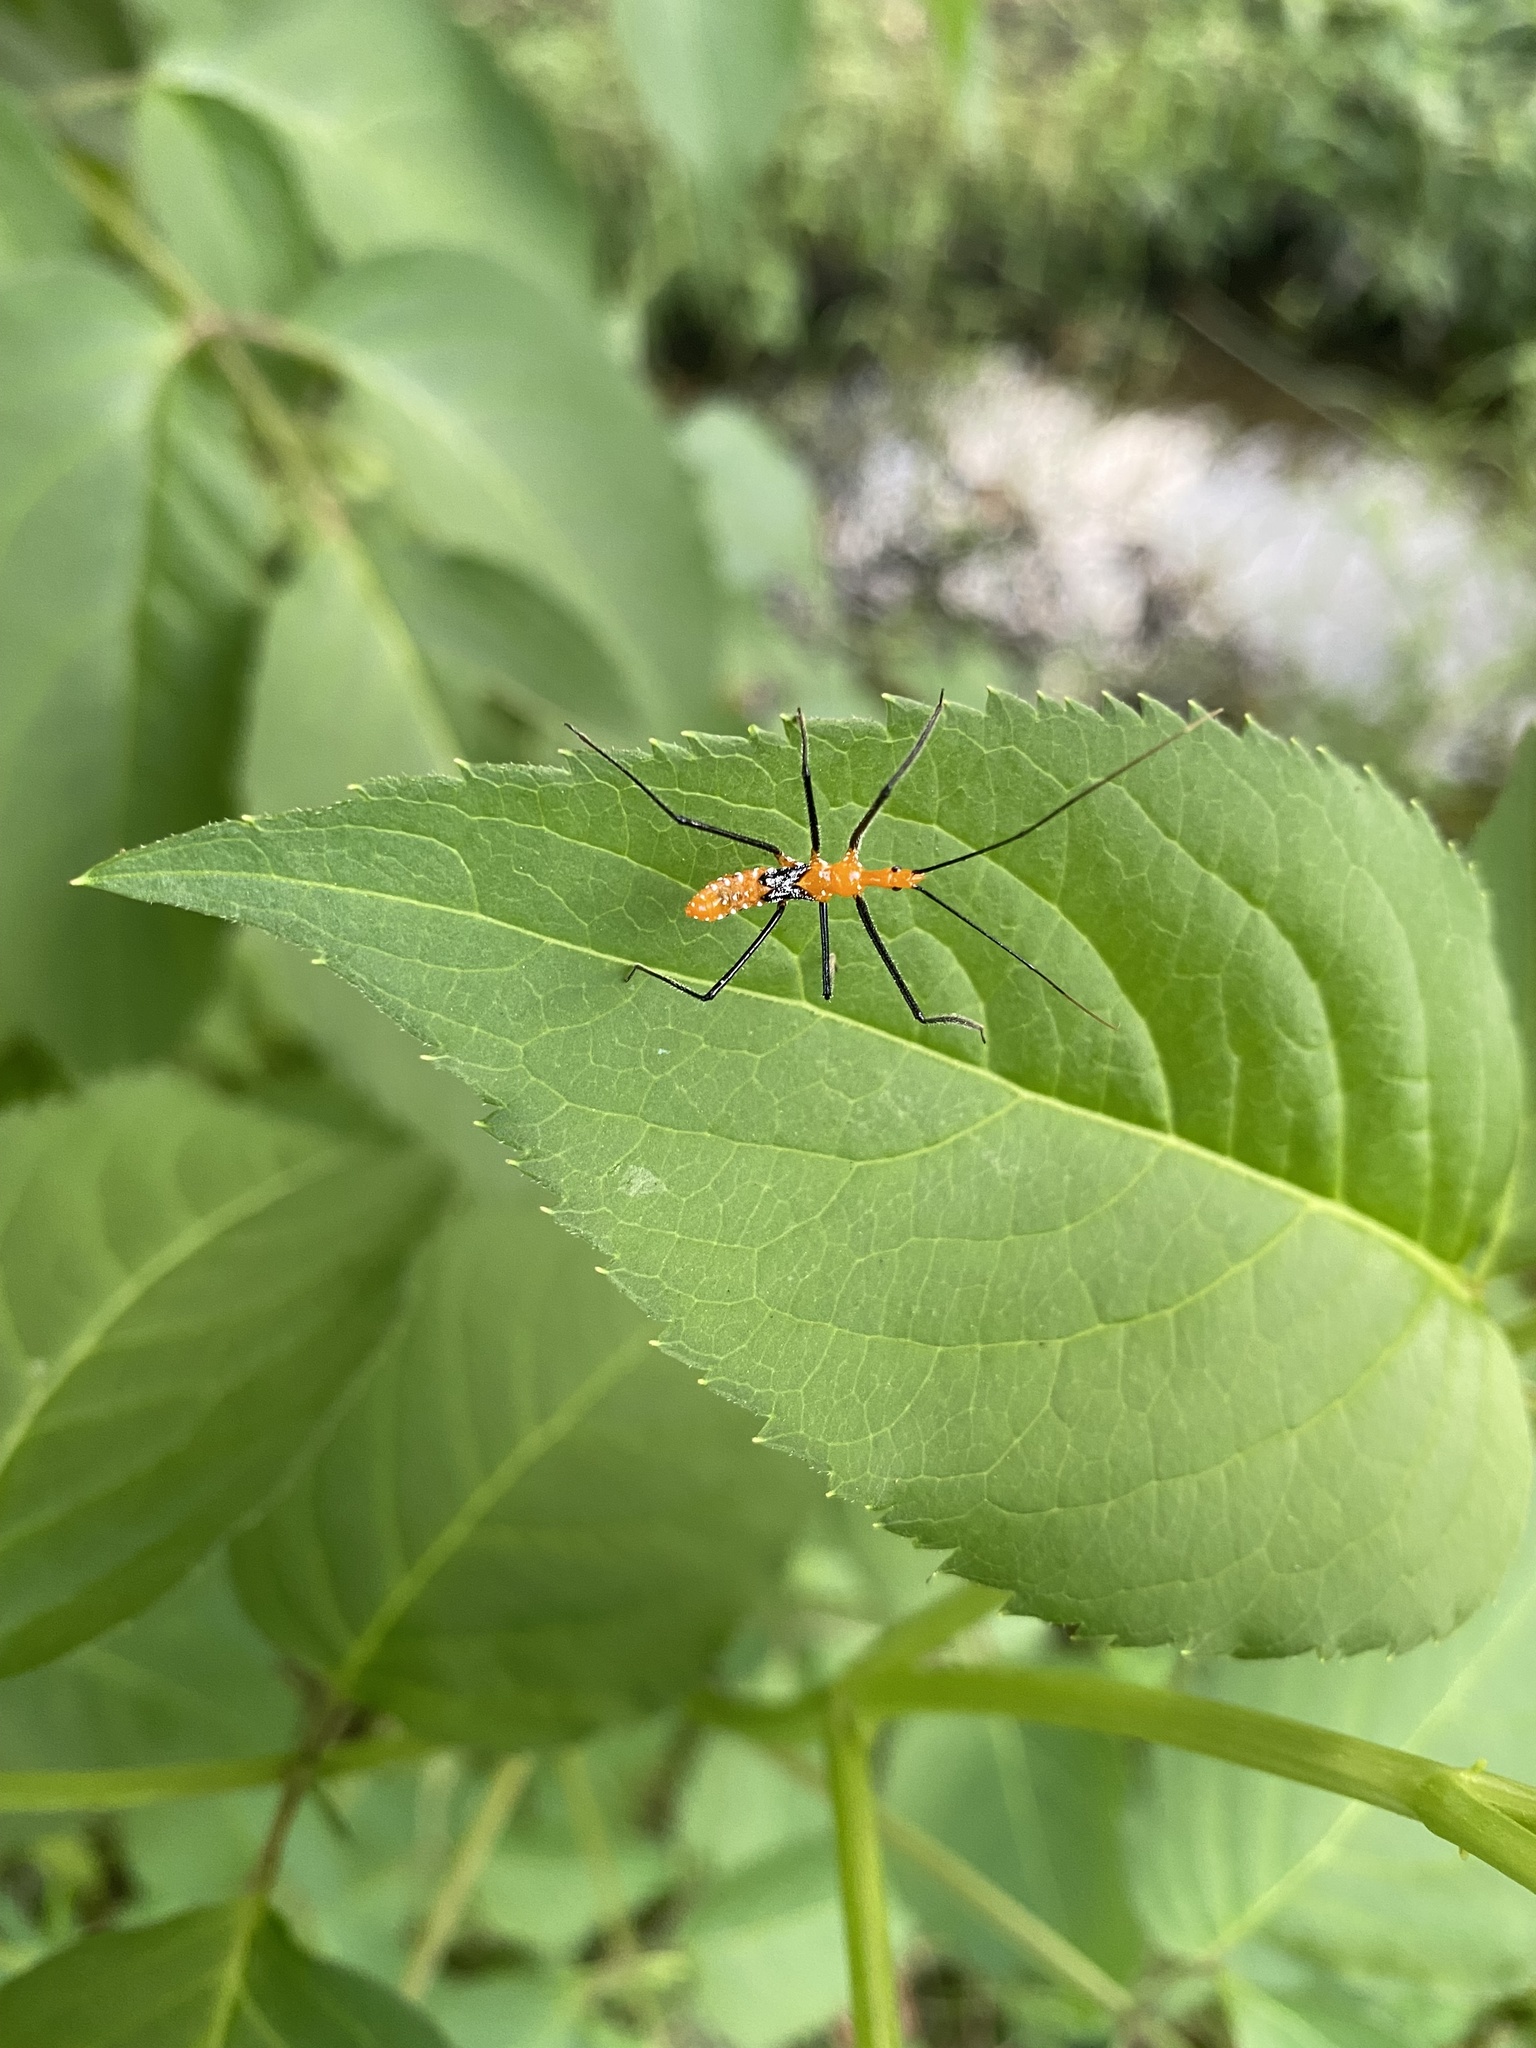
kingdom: Animalia
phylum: Arthropoda
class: Insecta
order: Hemiptera
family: Reduviidae
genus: Zelus
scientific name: Zelus longipes
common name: Milkweed assassin bug
